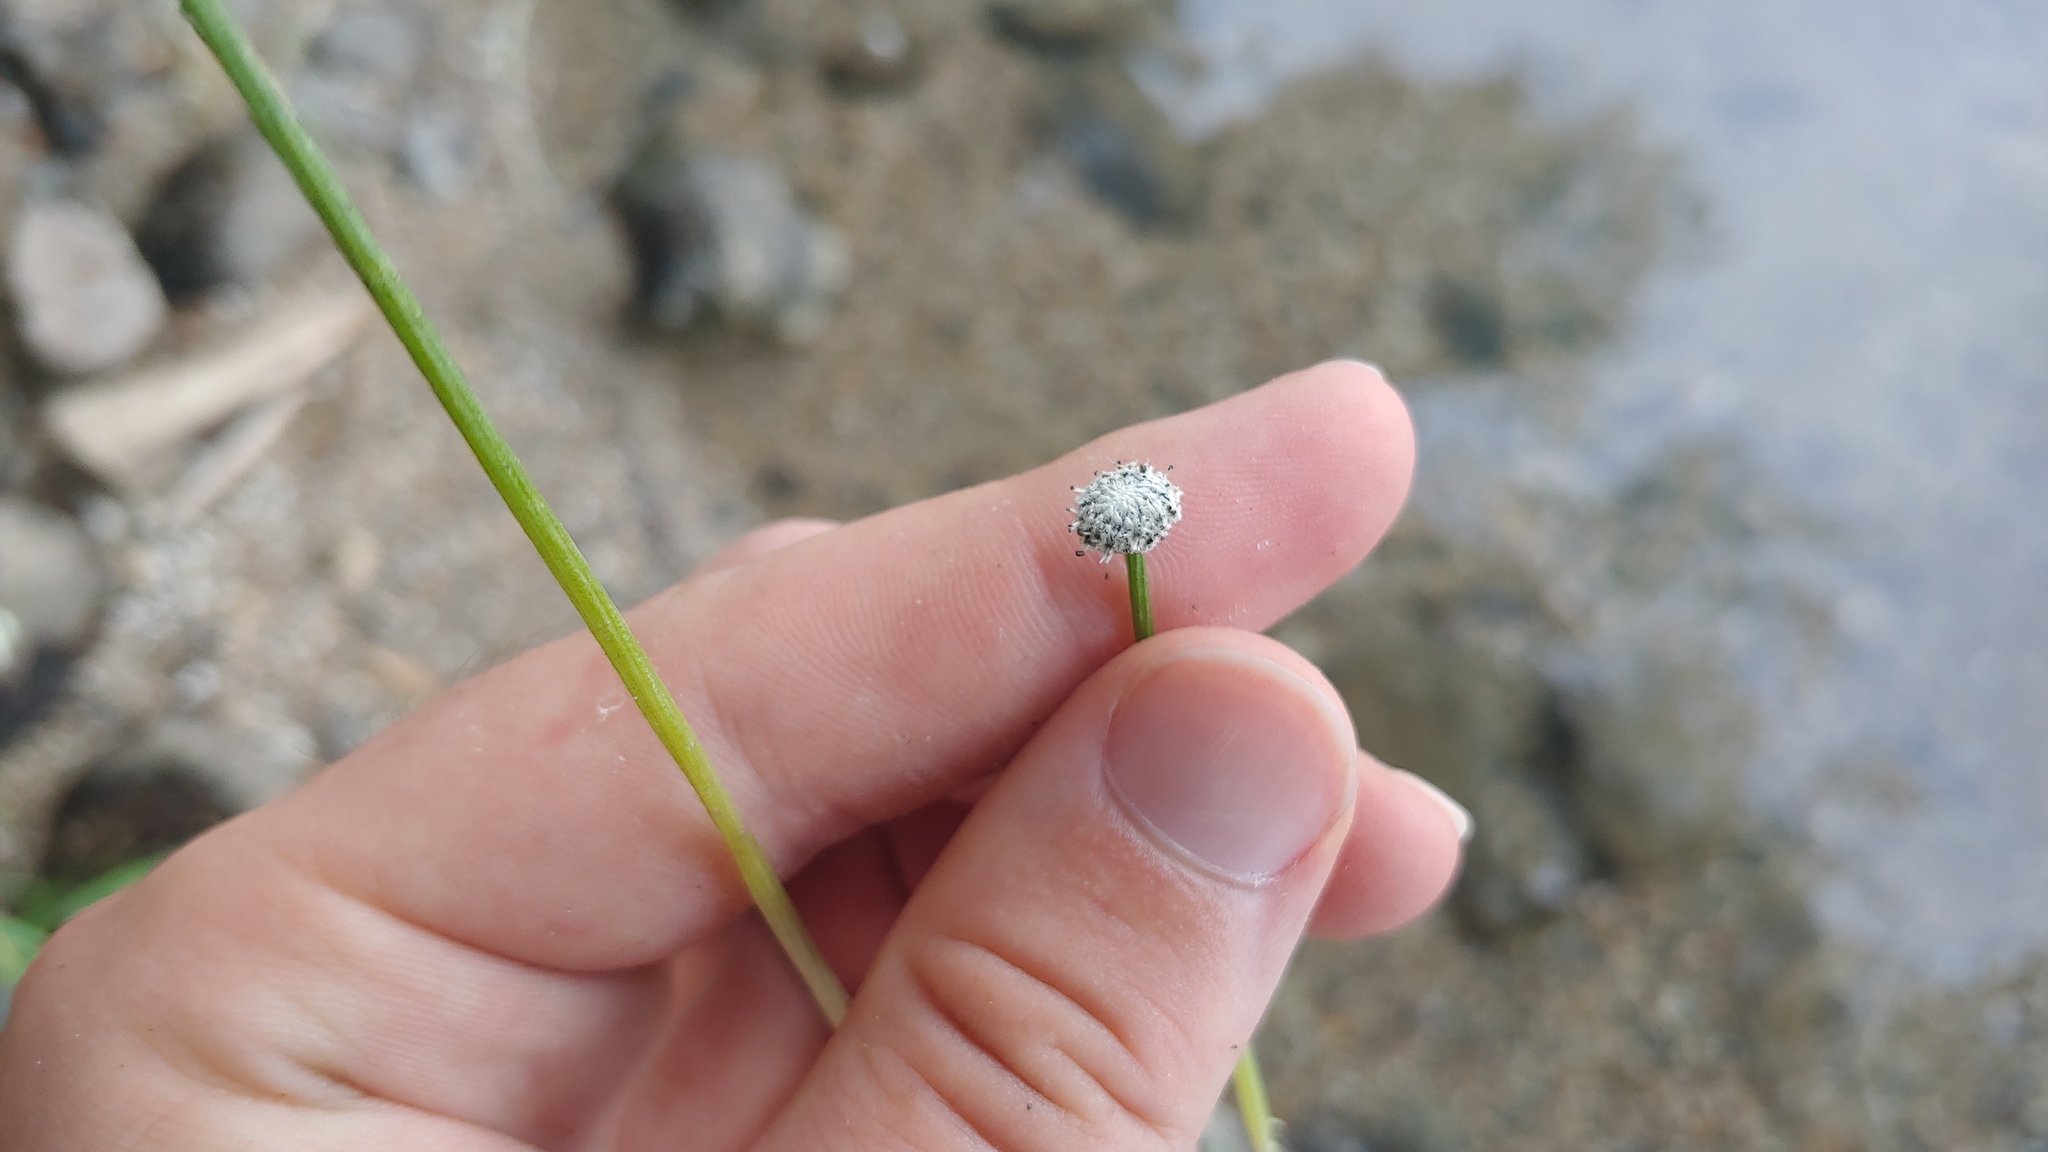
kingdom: Plantae
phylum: Tracheophyta
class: Liliopsida
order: Poales
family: Eriocaulaceae
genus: Eriocaulon
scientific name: Eriocaulon aquaticum
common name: Pipewort
